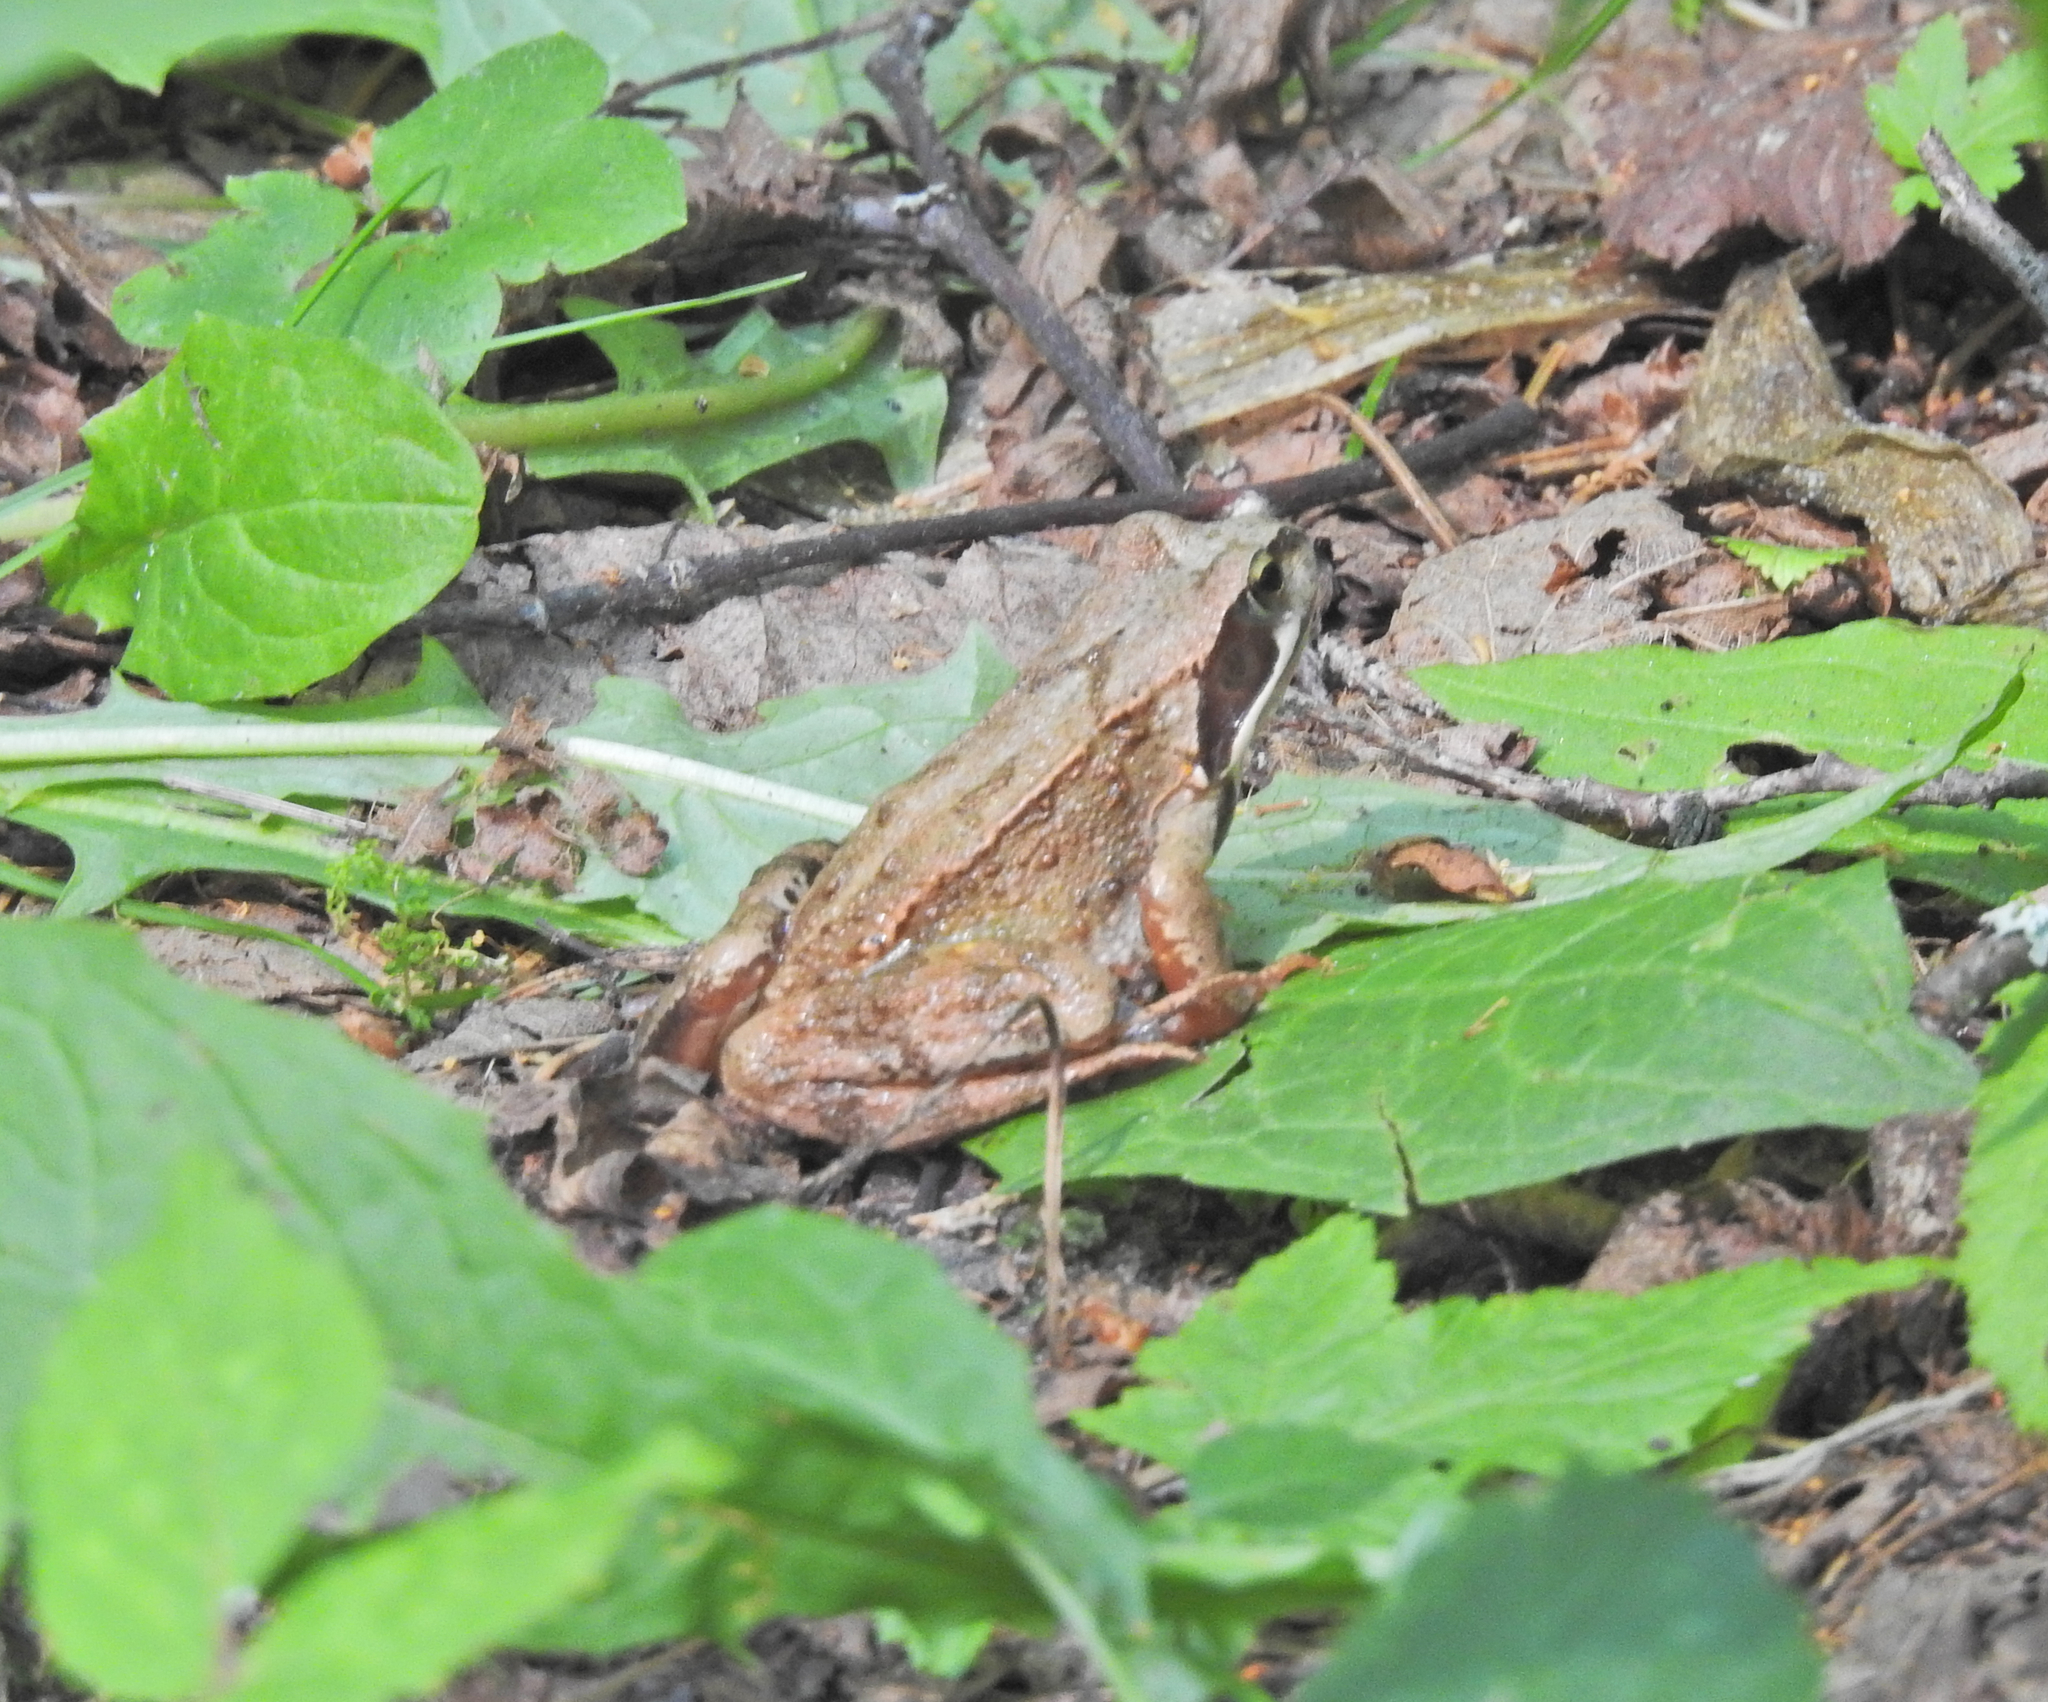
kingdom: Animalia
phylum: Chordata
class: Amphibia
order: Anura
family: Ranidae
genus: Rana
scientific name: Rana temporaria
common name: Common frog
